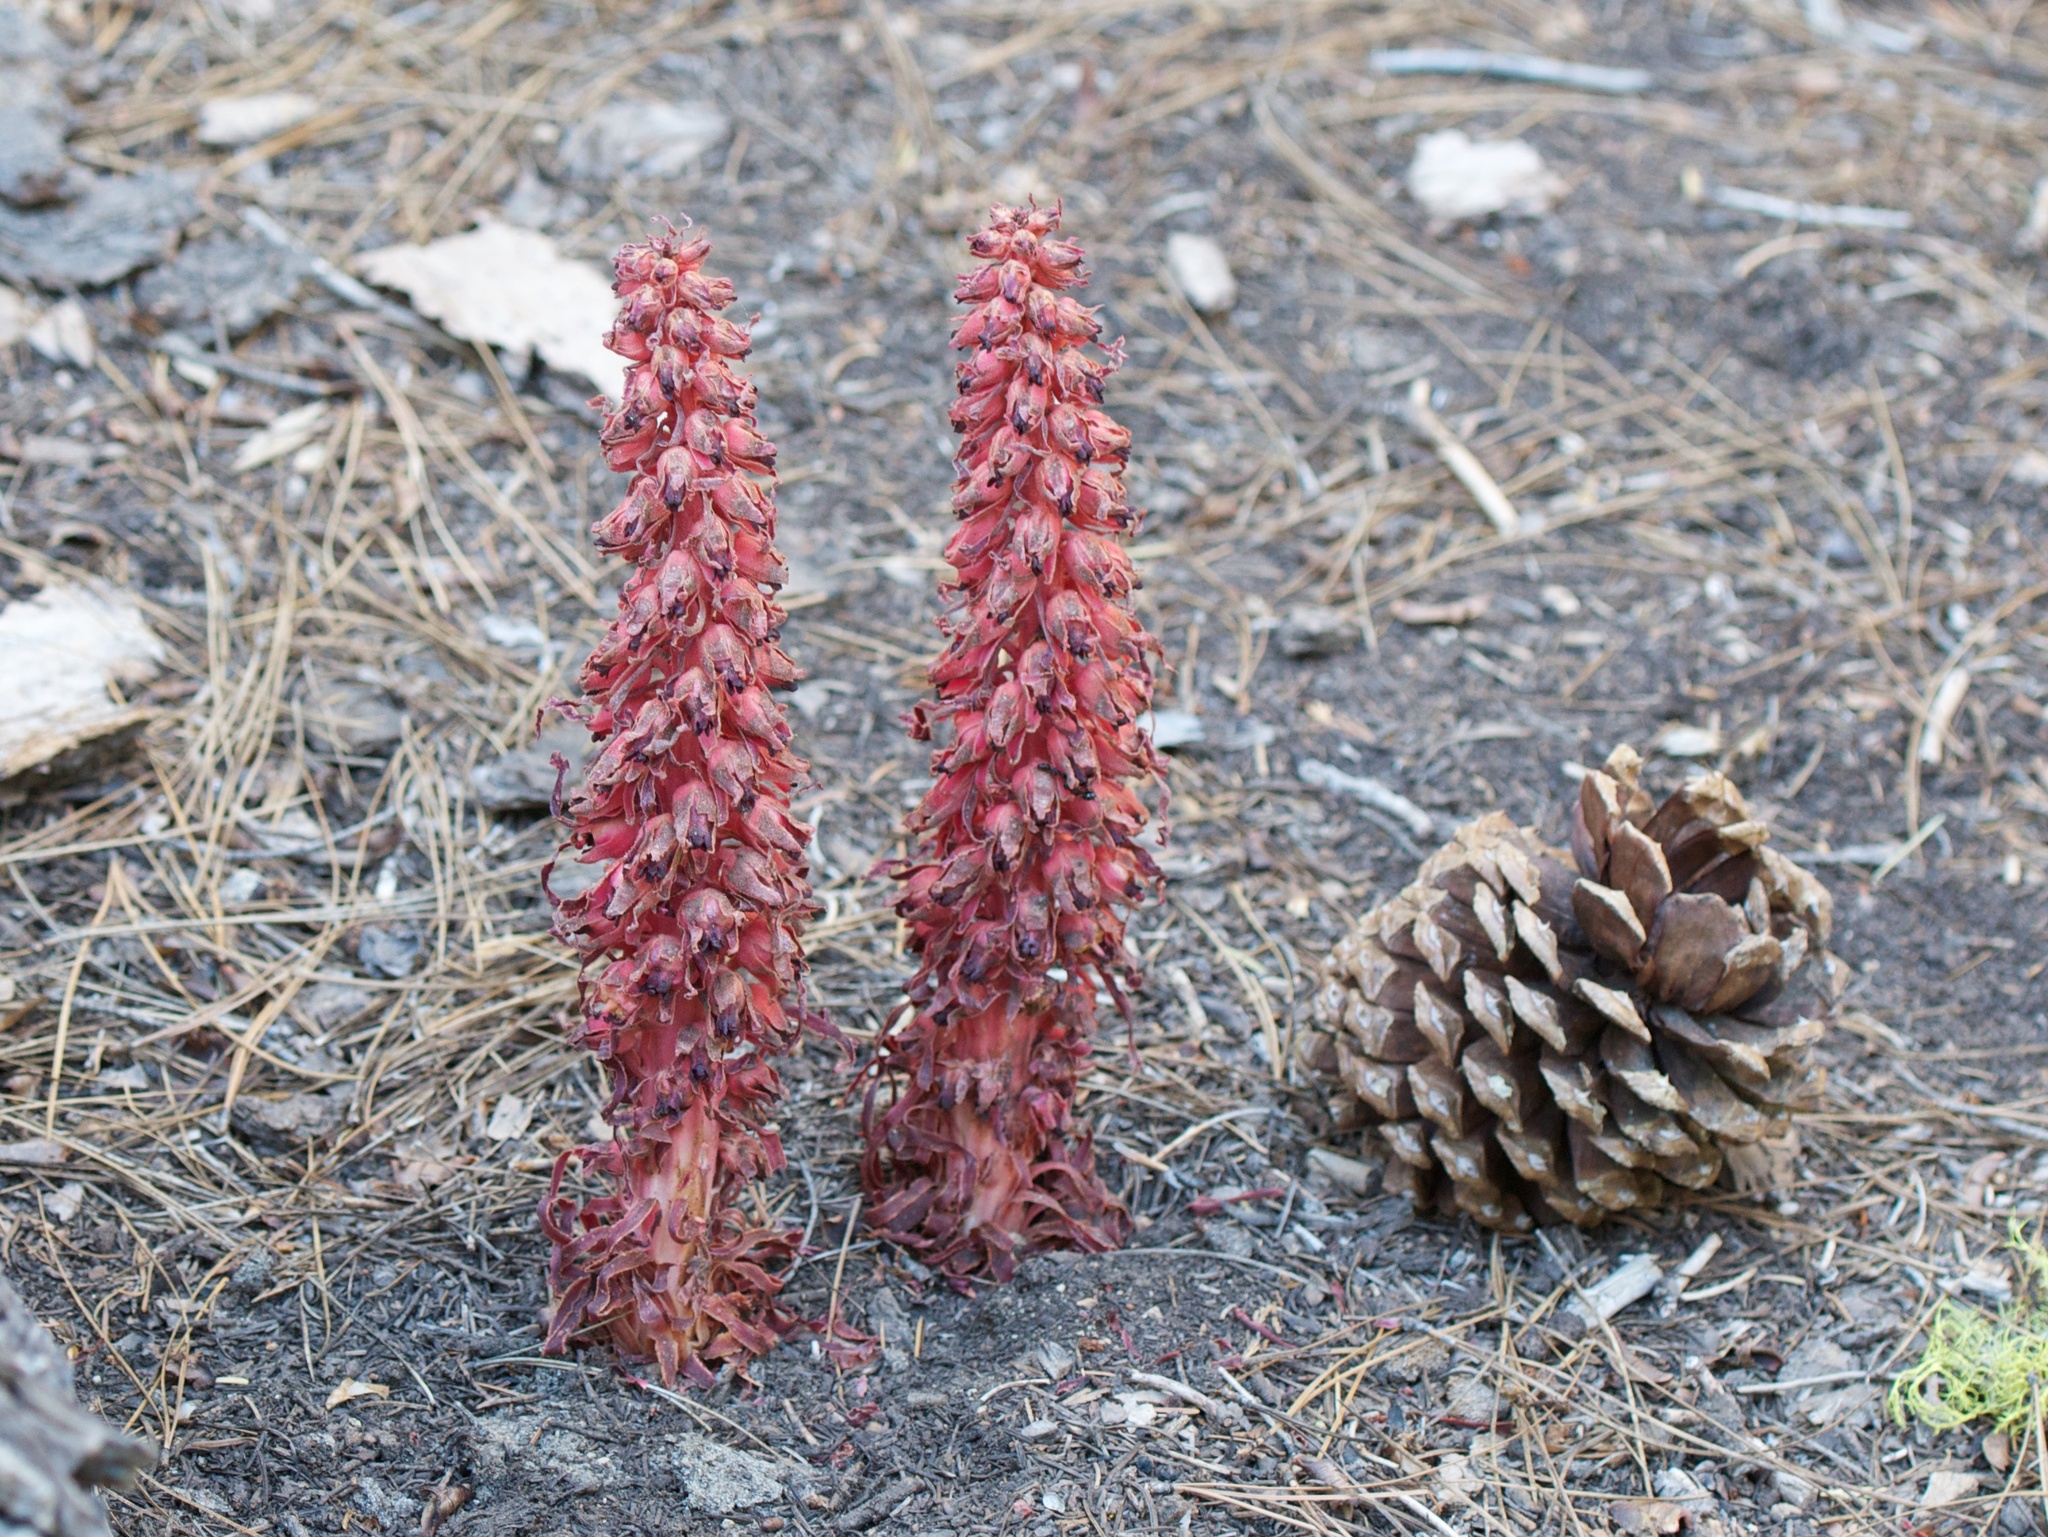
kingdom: Plantae
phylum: Tracheophyta
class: Magnoliopsida
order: Ericales
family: Ericaceae
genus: Sarcodes
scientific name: Sarcodes sanguinea
